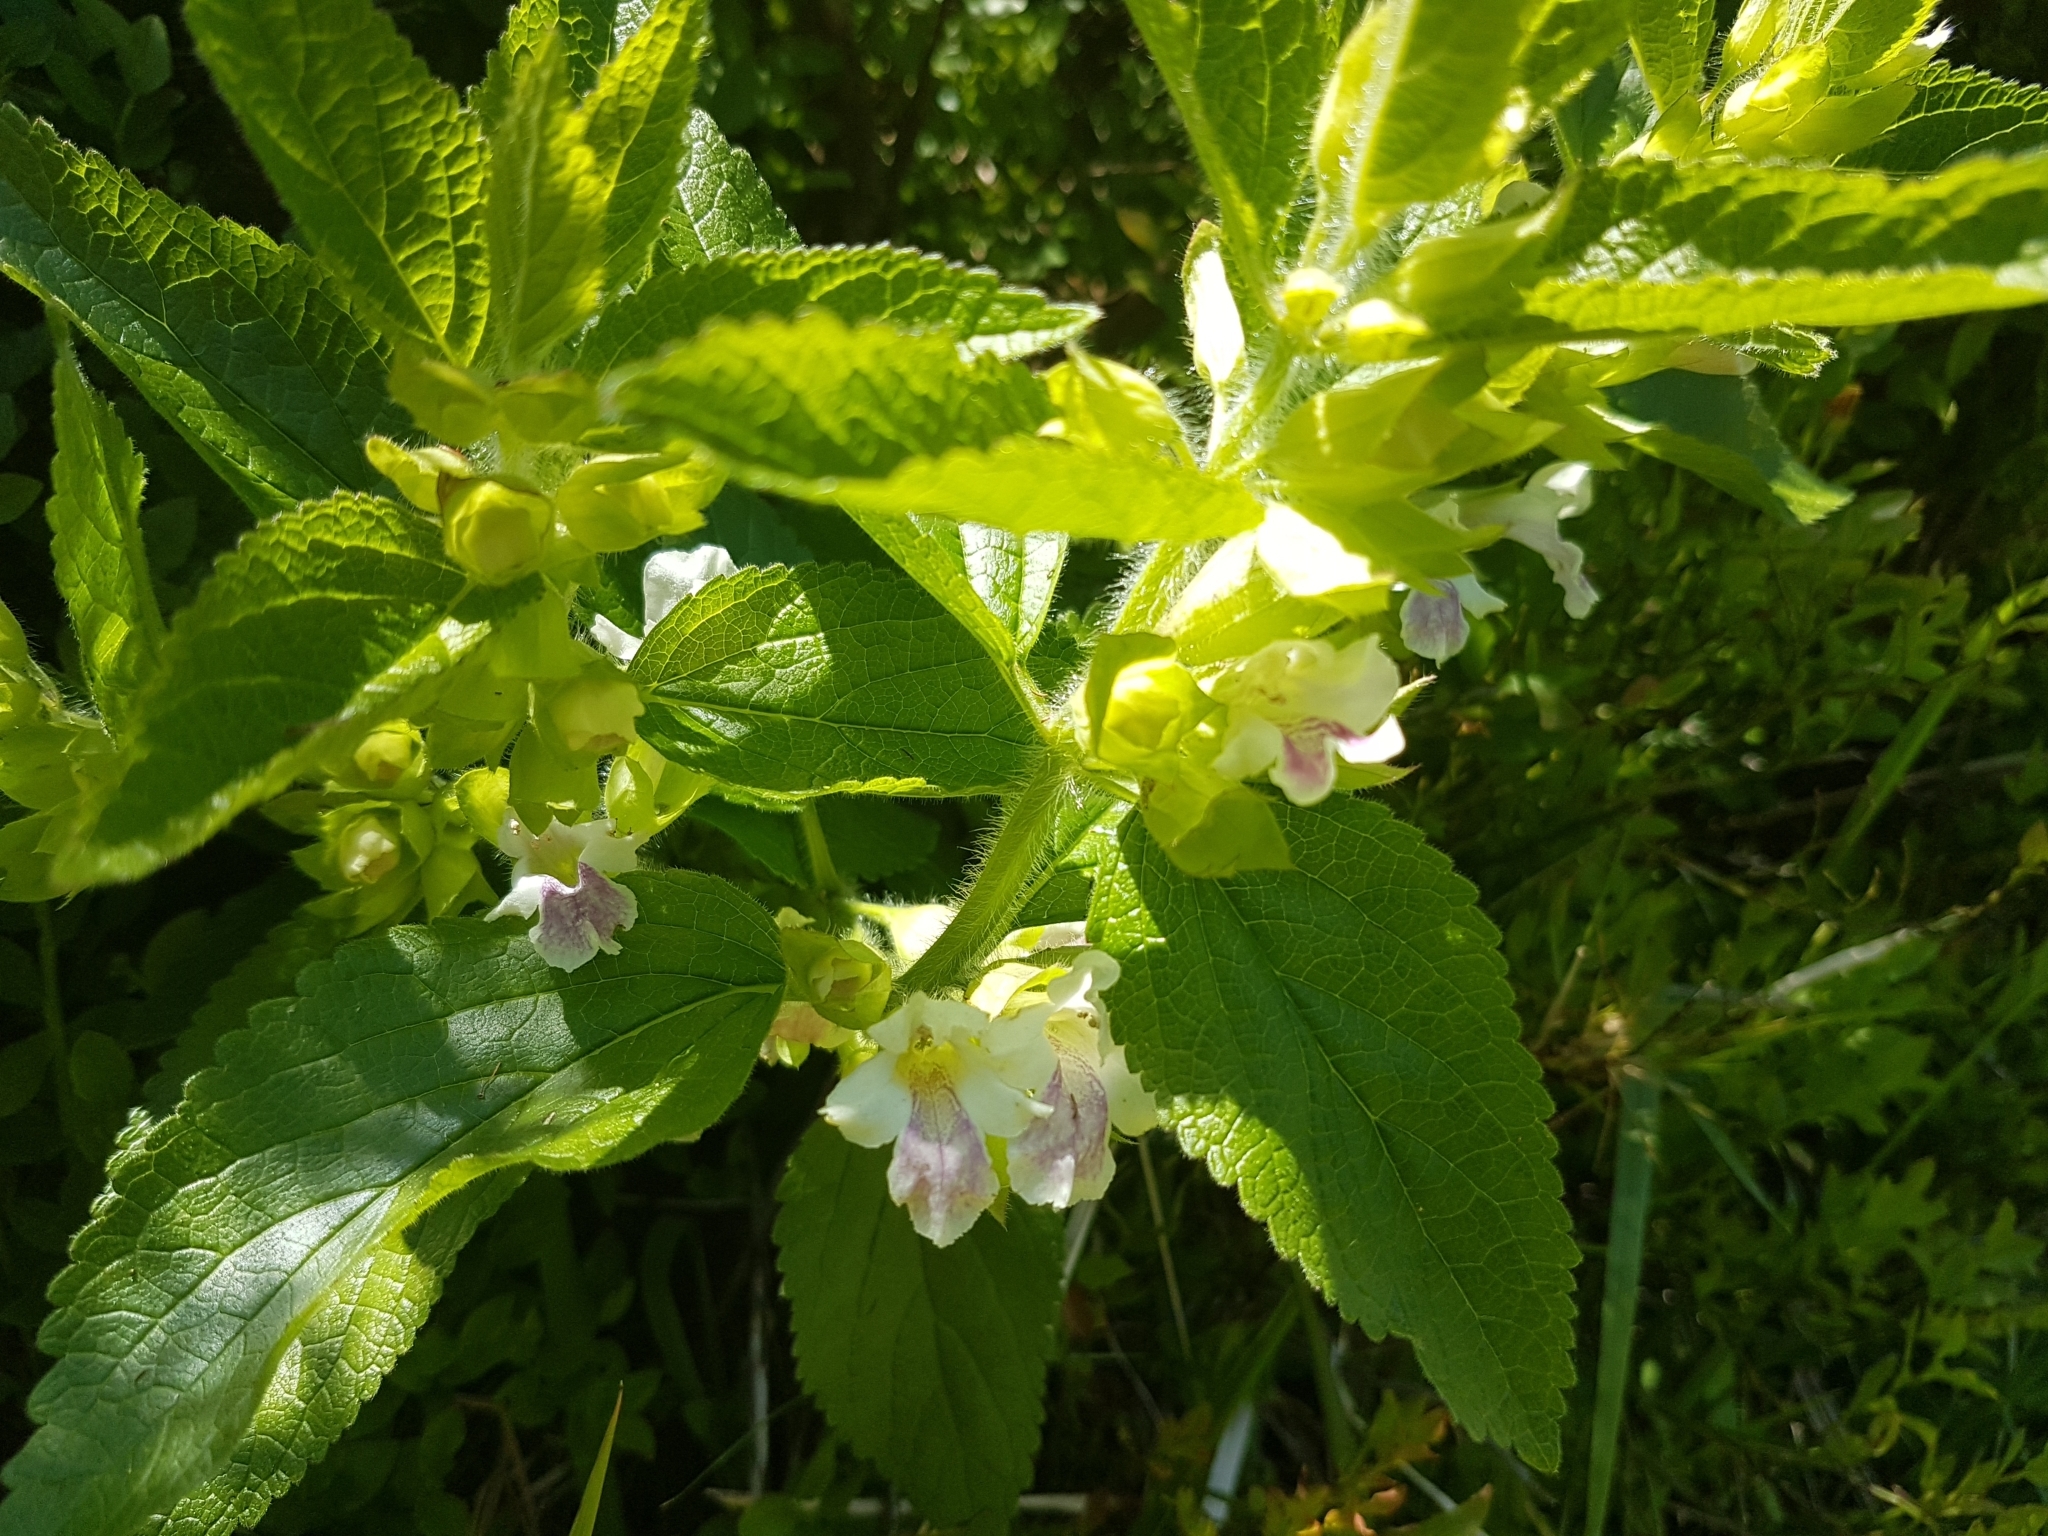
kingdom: Plantae
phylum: Tracheophyta
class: Magnoliopsida
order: Lamiales
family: Lamiaceae
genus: Melittis
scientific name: Melittis melissophyllum
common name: Bastard balm
